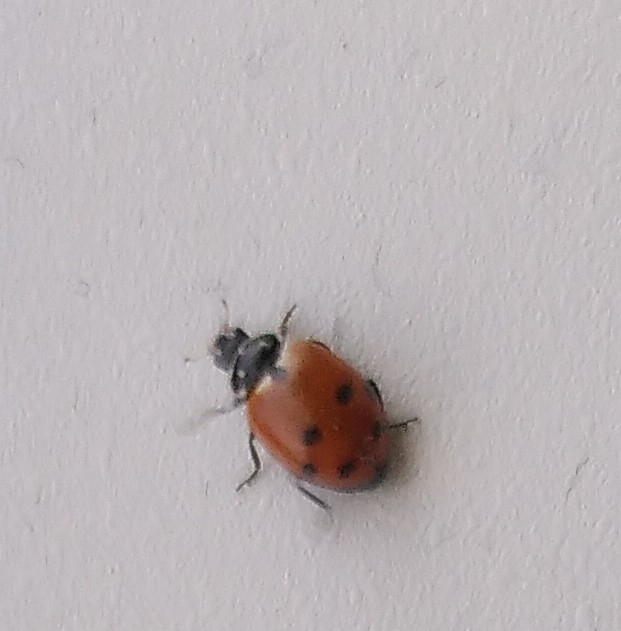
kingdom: Animalia
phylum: Arthropoda
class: Insecta
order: Coleoptera
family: Coccinellidae
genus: Hippodamia
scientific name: Hippodamia variegata
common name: Ladybird beetle
